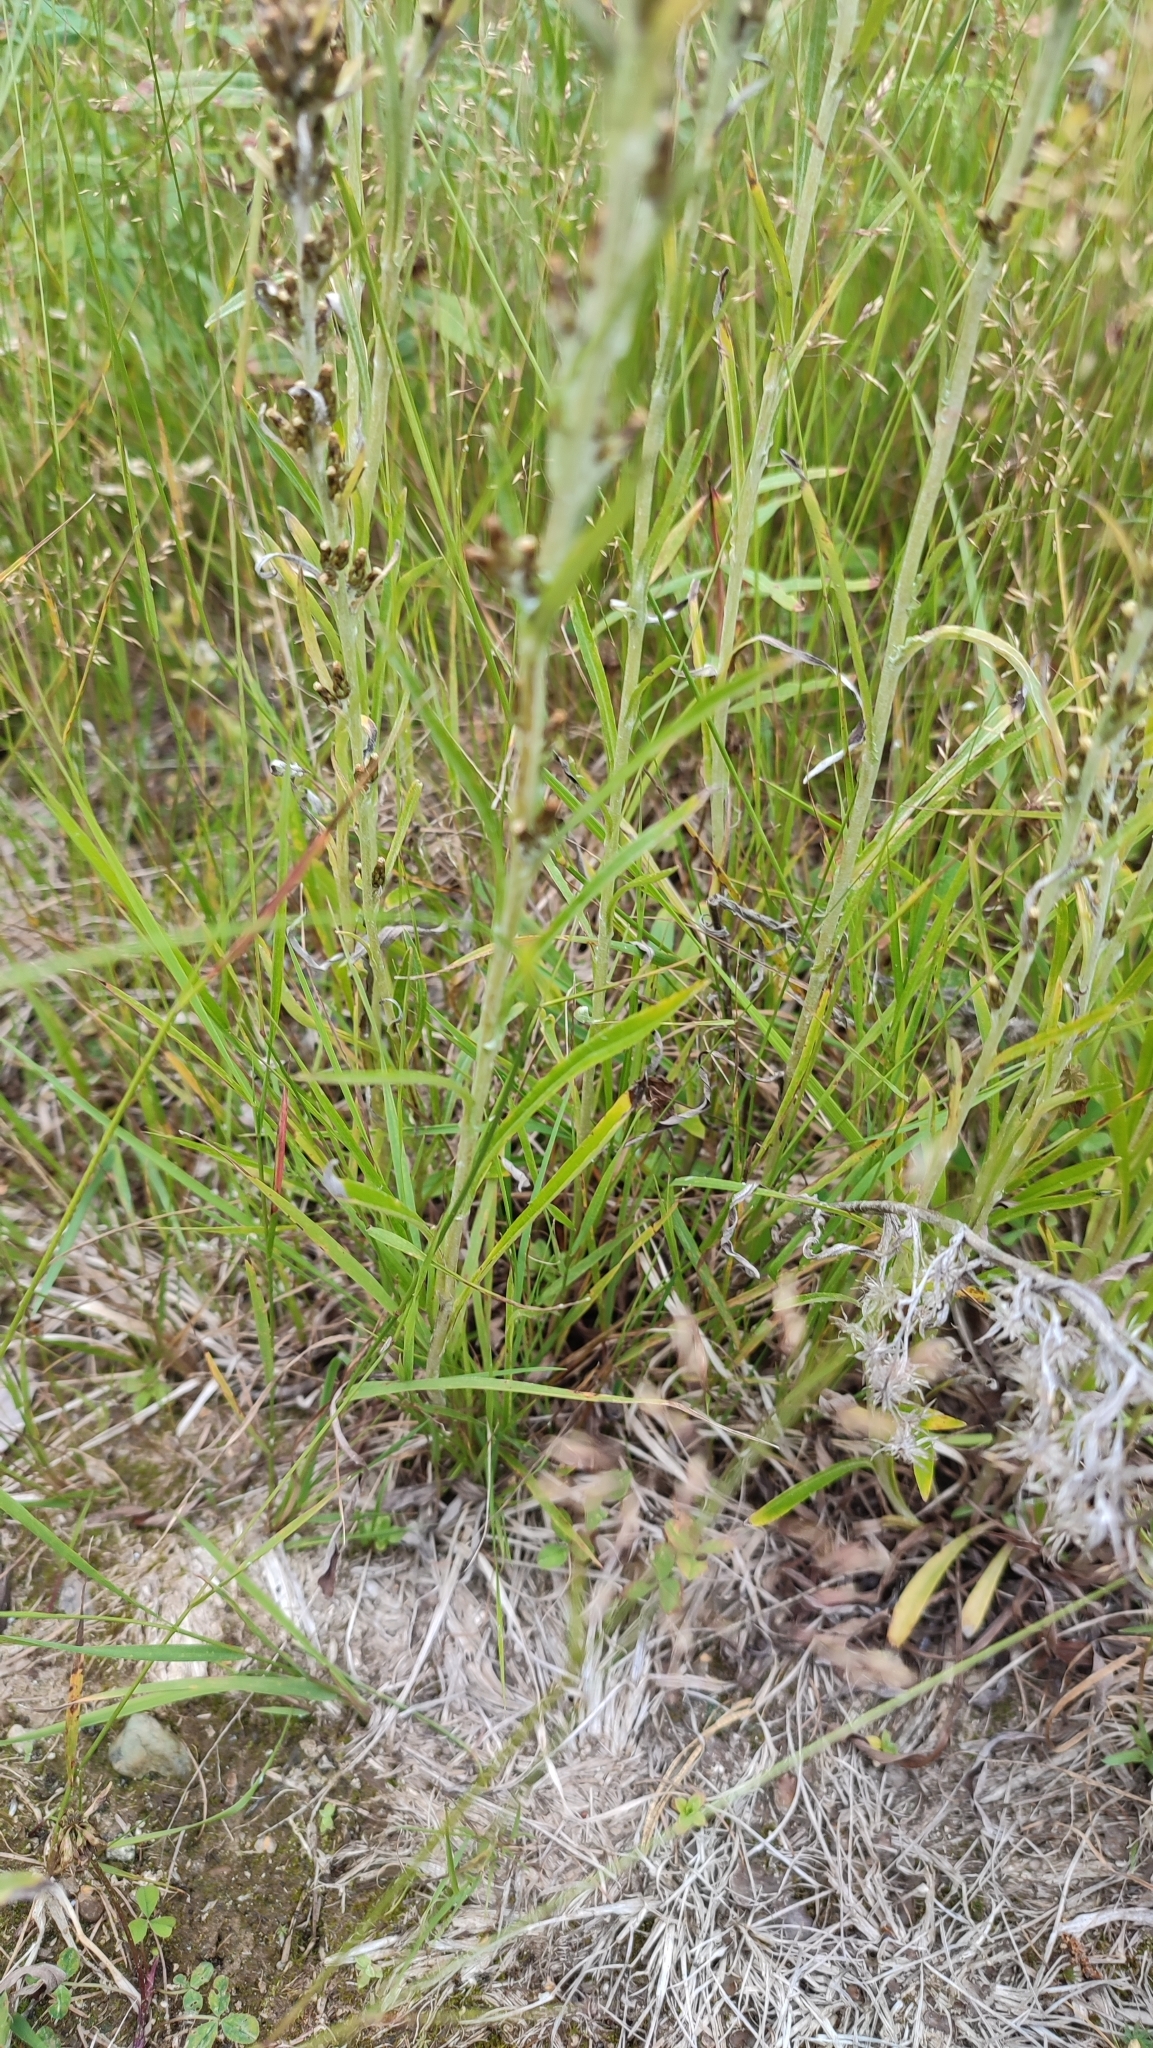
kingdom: Plantae
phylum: Tracheophyta
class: Magnoliopsida
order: Asterales
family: Asteraceae
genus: Omalotheca
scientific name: Omalotheca sylvatica
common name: Heath cudweed
